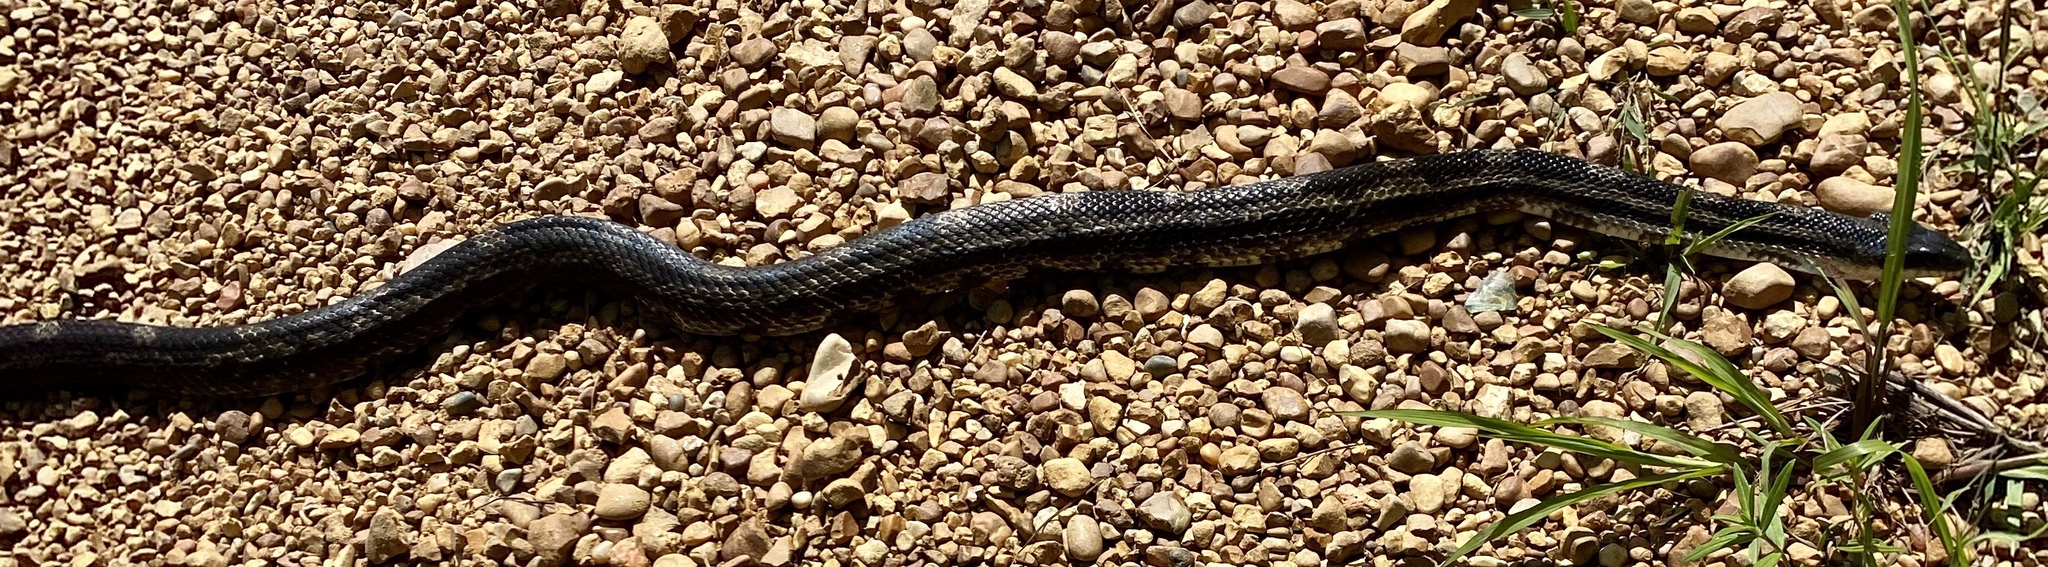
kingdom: Animalia
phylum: Chordata
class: Squamata
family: Colubridae
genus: Pantherophis
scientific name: Pantherophis spiloides
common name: Gray rat snake
